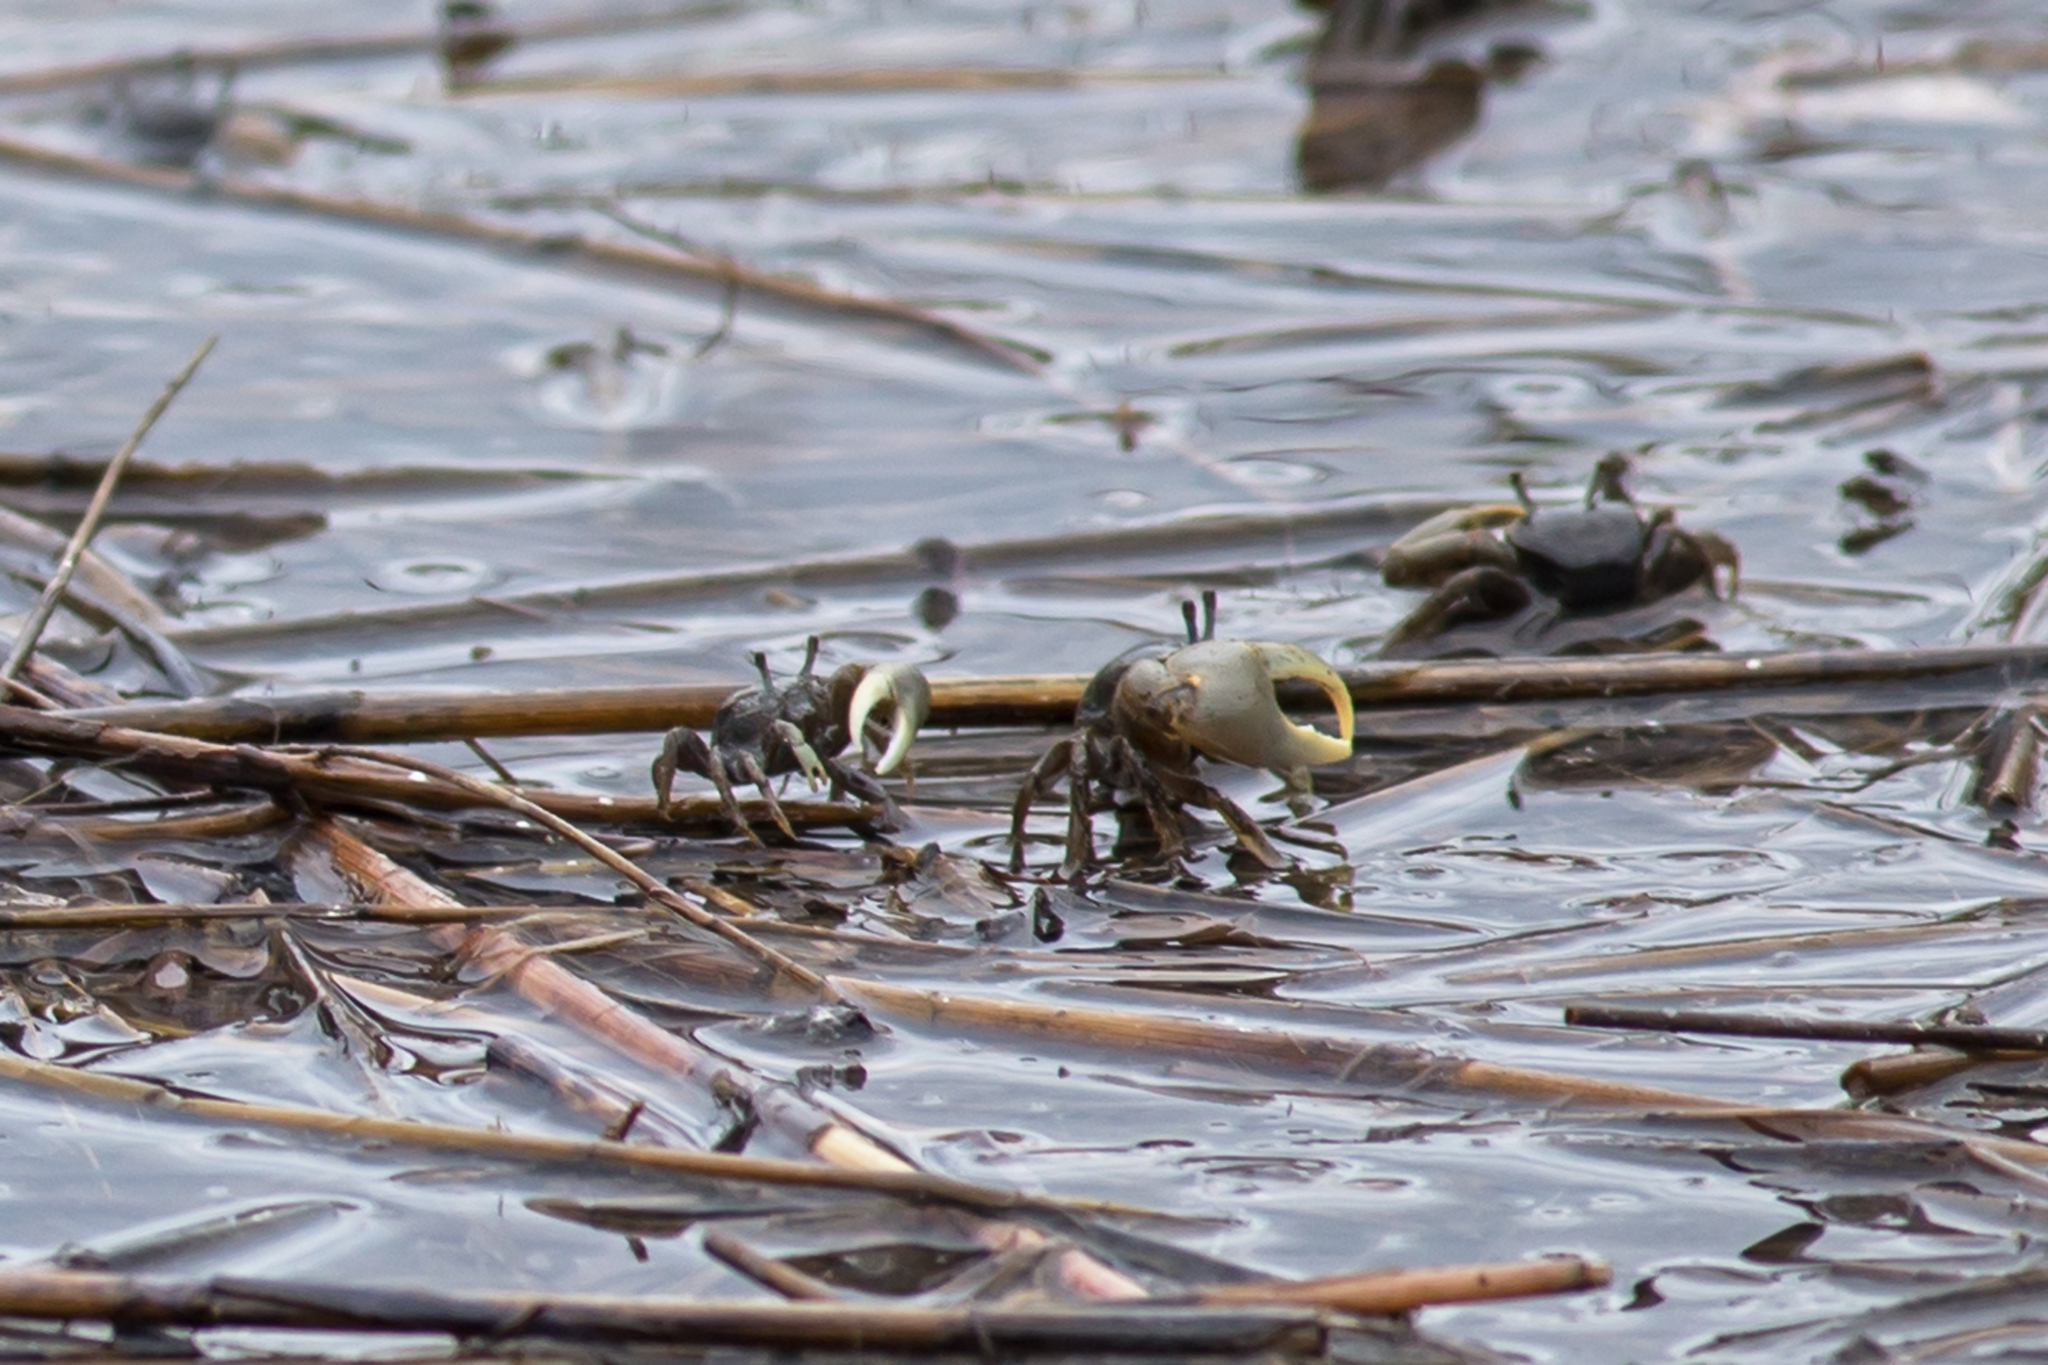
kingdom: Animalia
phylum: Arthropoda
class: Malacostraca
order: Decapoda
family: Ocypodidae
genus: Minuca
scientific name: Minuca pugnax
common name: Mud fiddler crab
